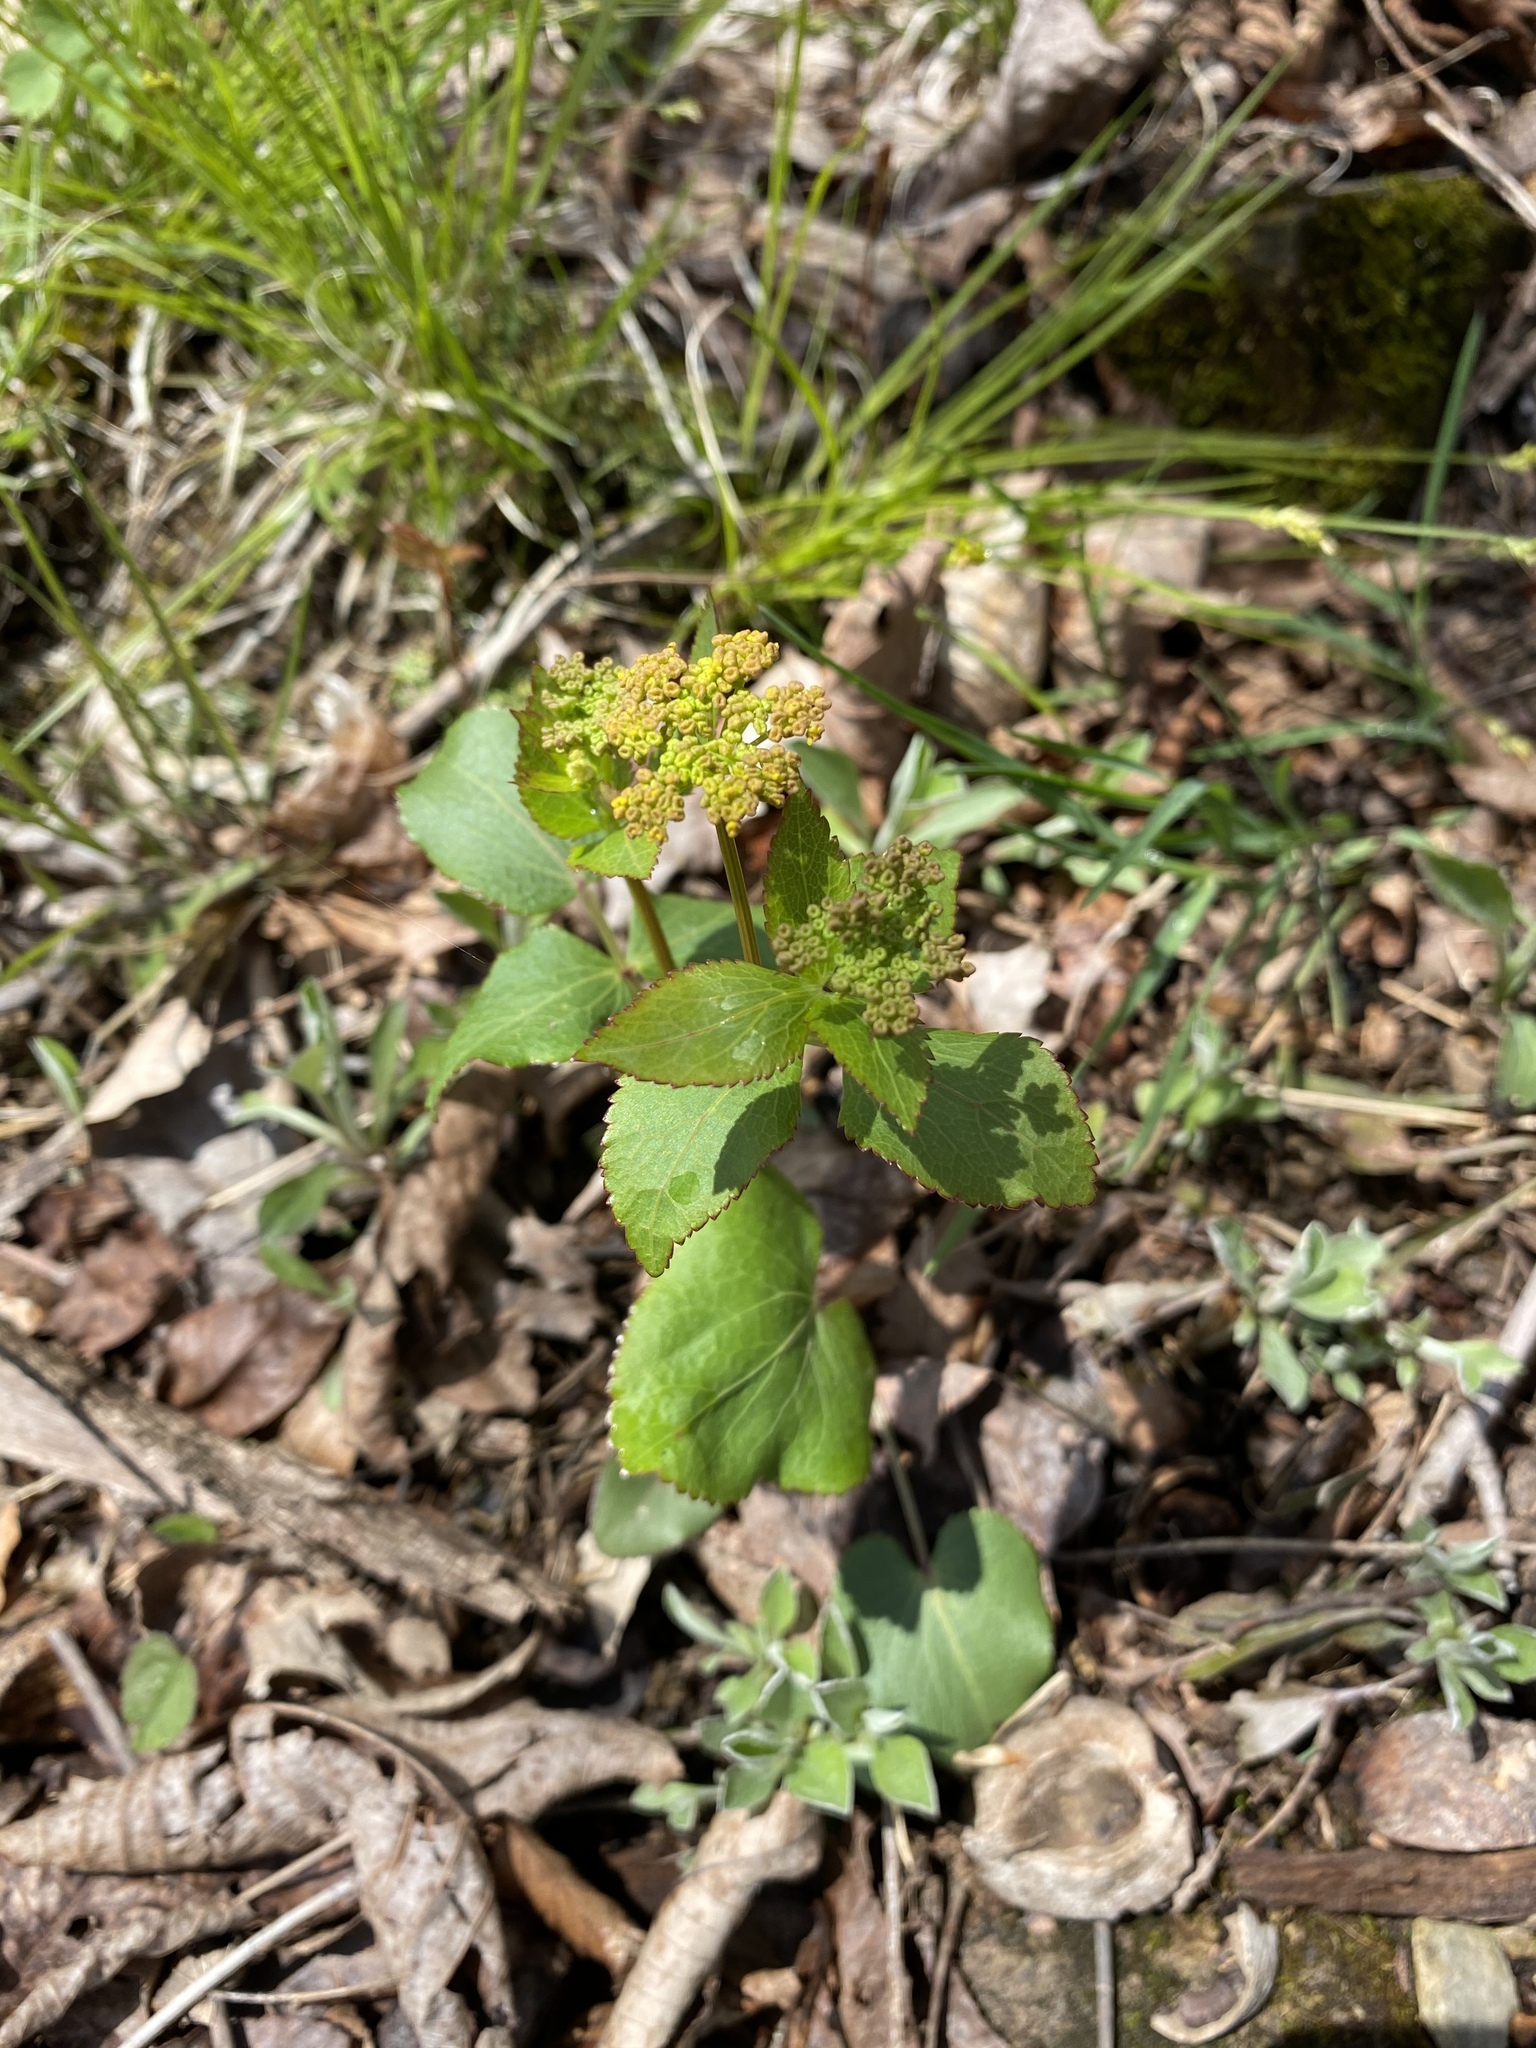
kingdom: Plantae
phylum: Tracheophyta
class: Magnoliopsida
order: Apiales
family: Apiaceae
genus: Zizia
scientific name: Zizia aptera
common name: Heart-leaved alexanders
